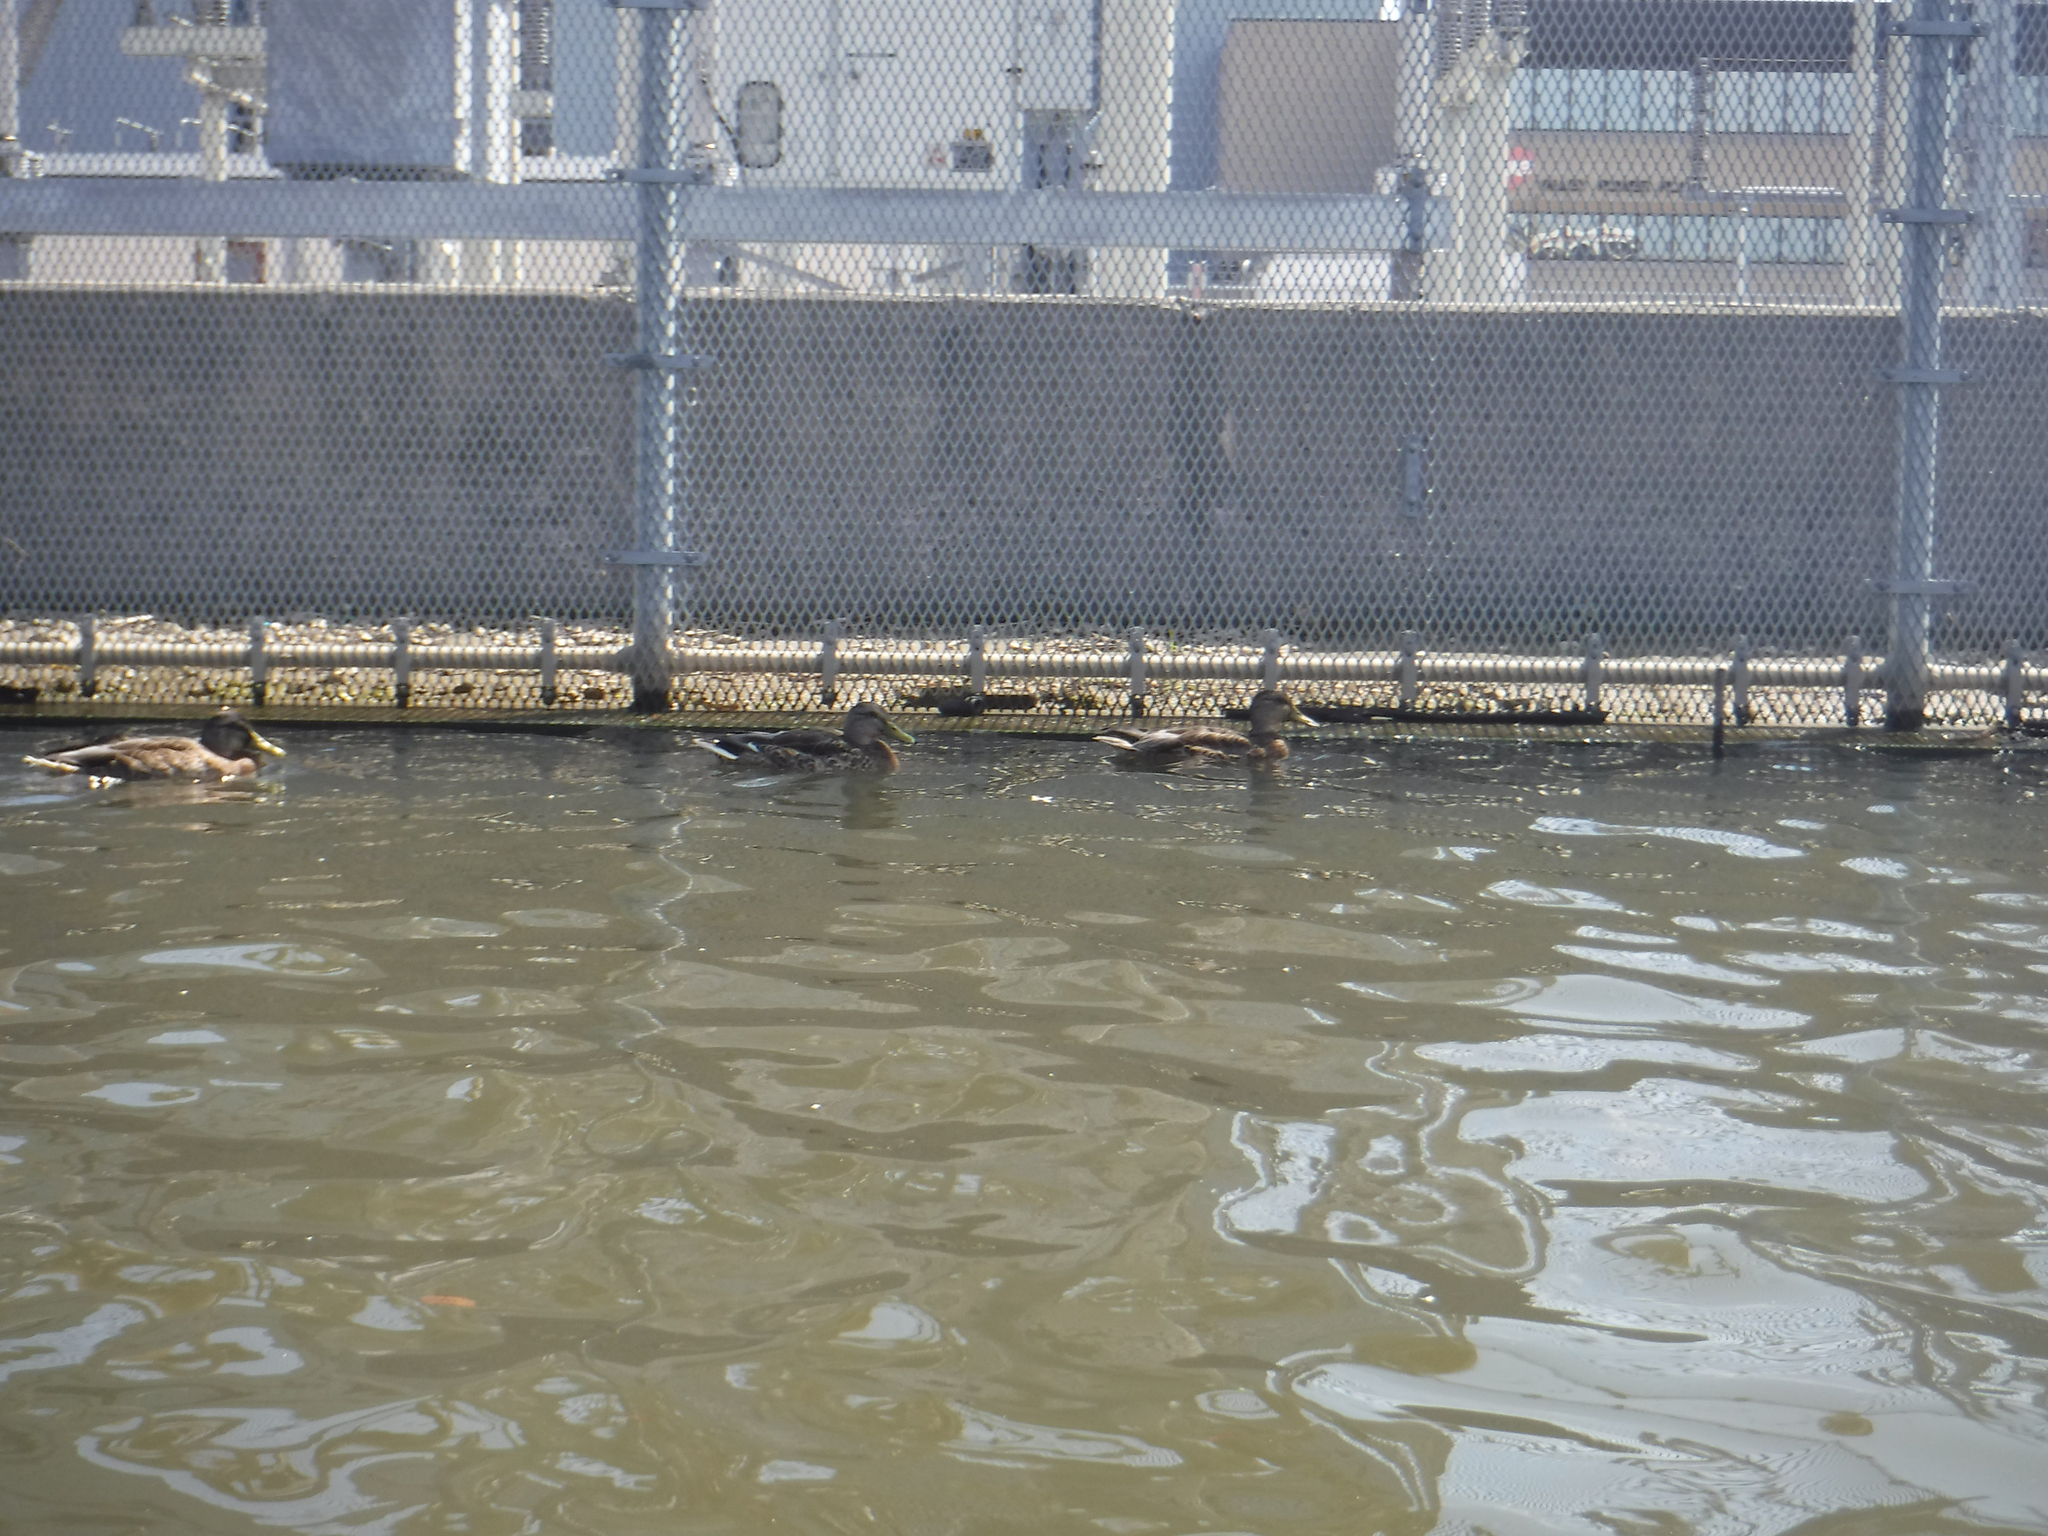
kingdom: Animalia
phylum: Chordata
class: Aves
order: Anseriformes
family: Anatidae
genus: Anas
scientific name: Anas platyrhynchos
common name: Mallard
